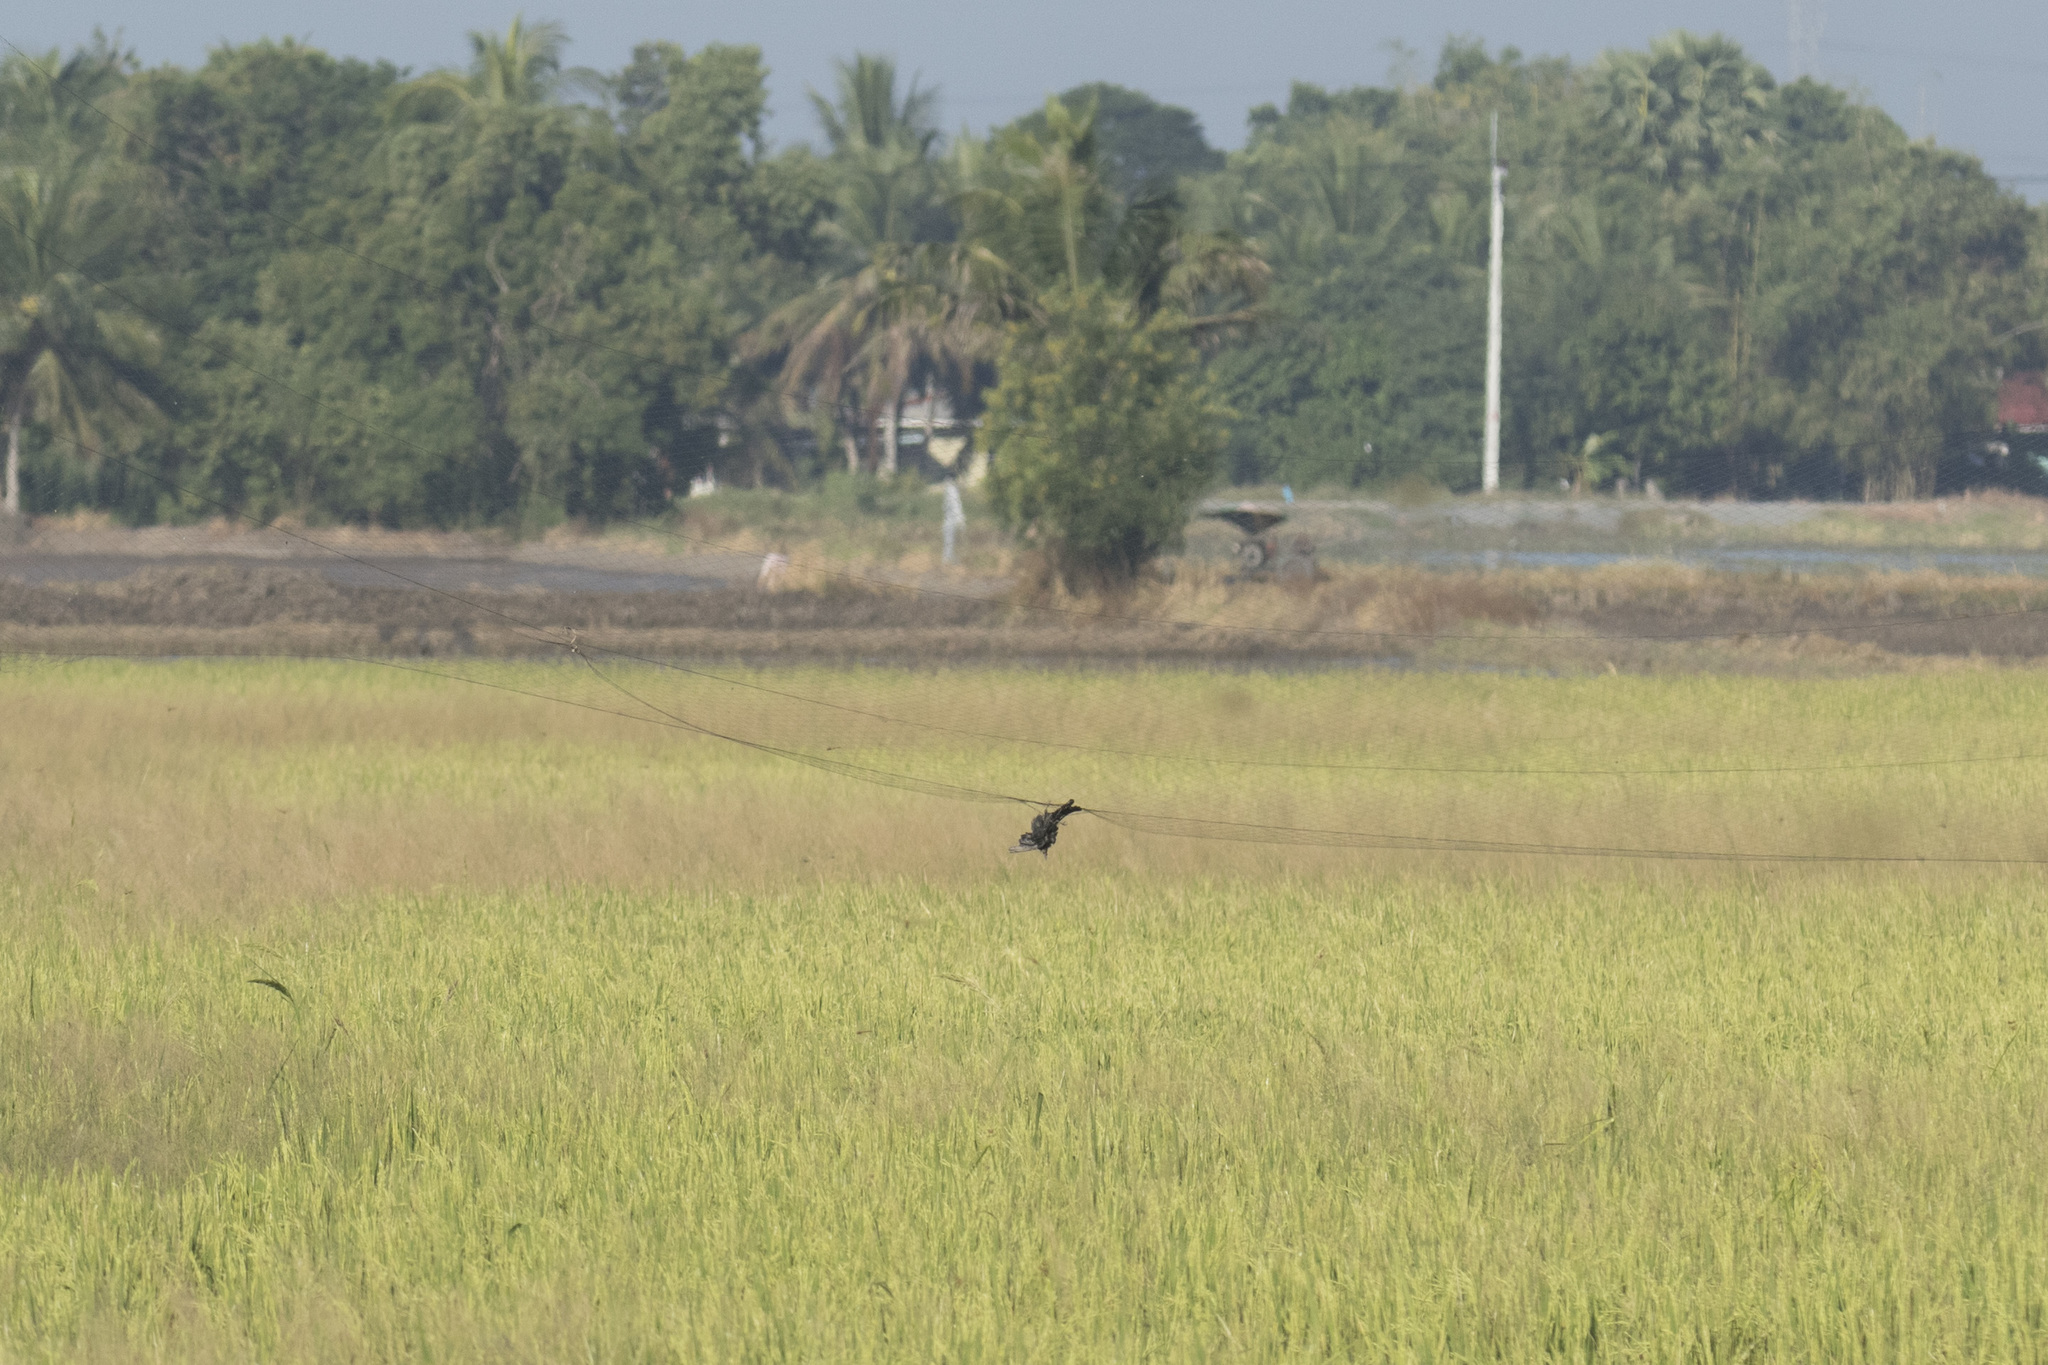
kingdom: Animalia
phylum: Chordata
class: Aves
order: Passeriformes
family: Dicruridae
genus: Dicrurus
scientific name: Dicrurus macrocercus
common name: Black drongo
